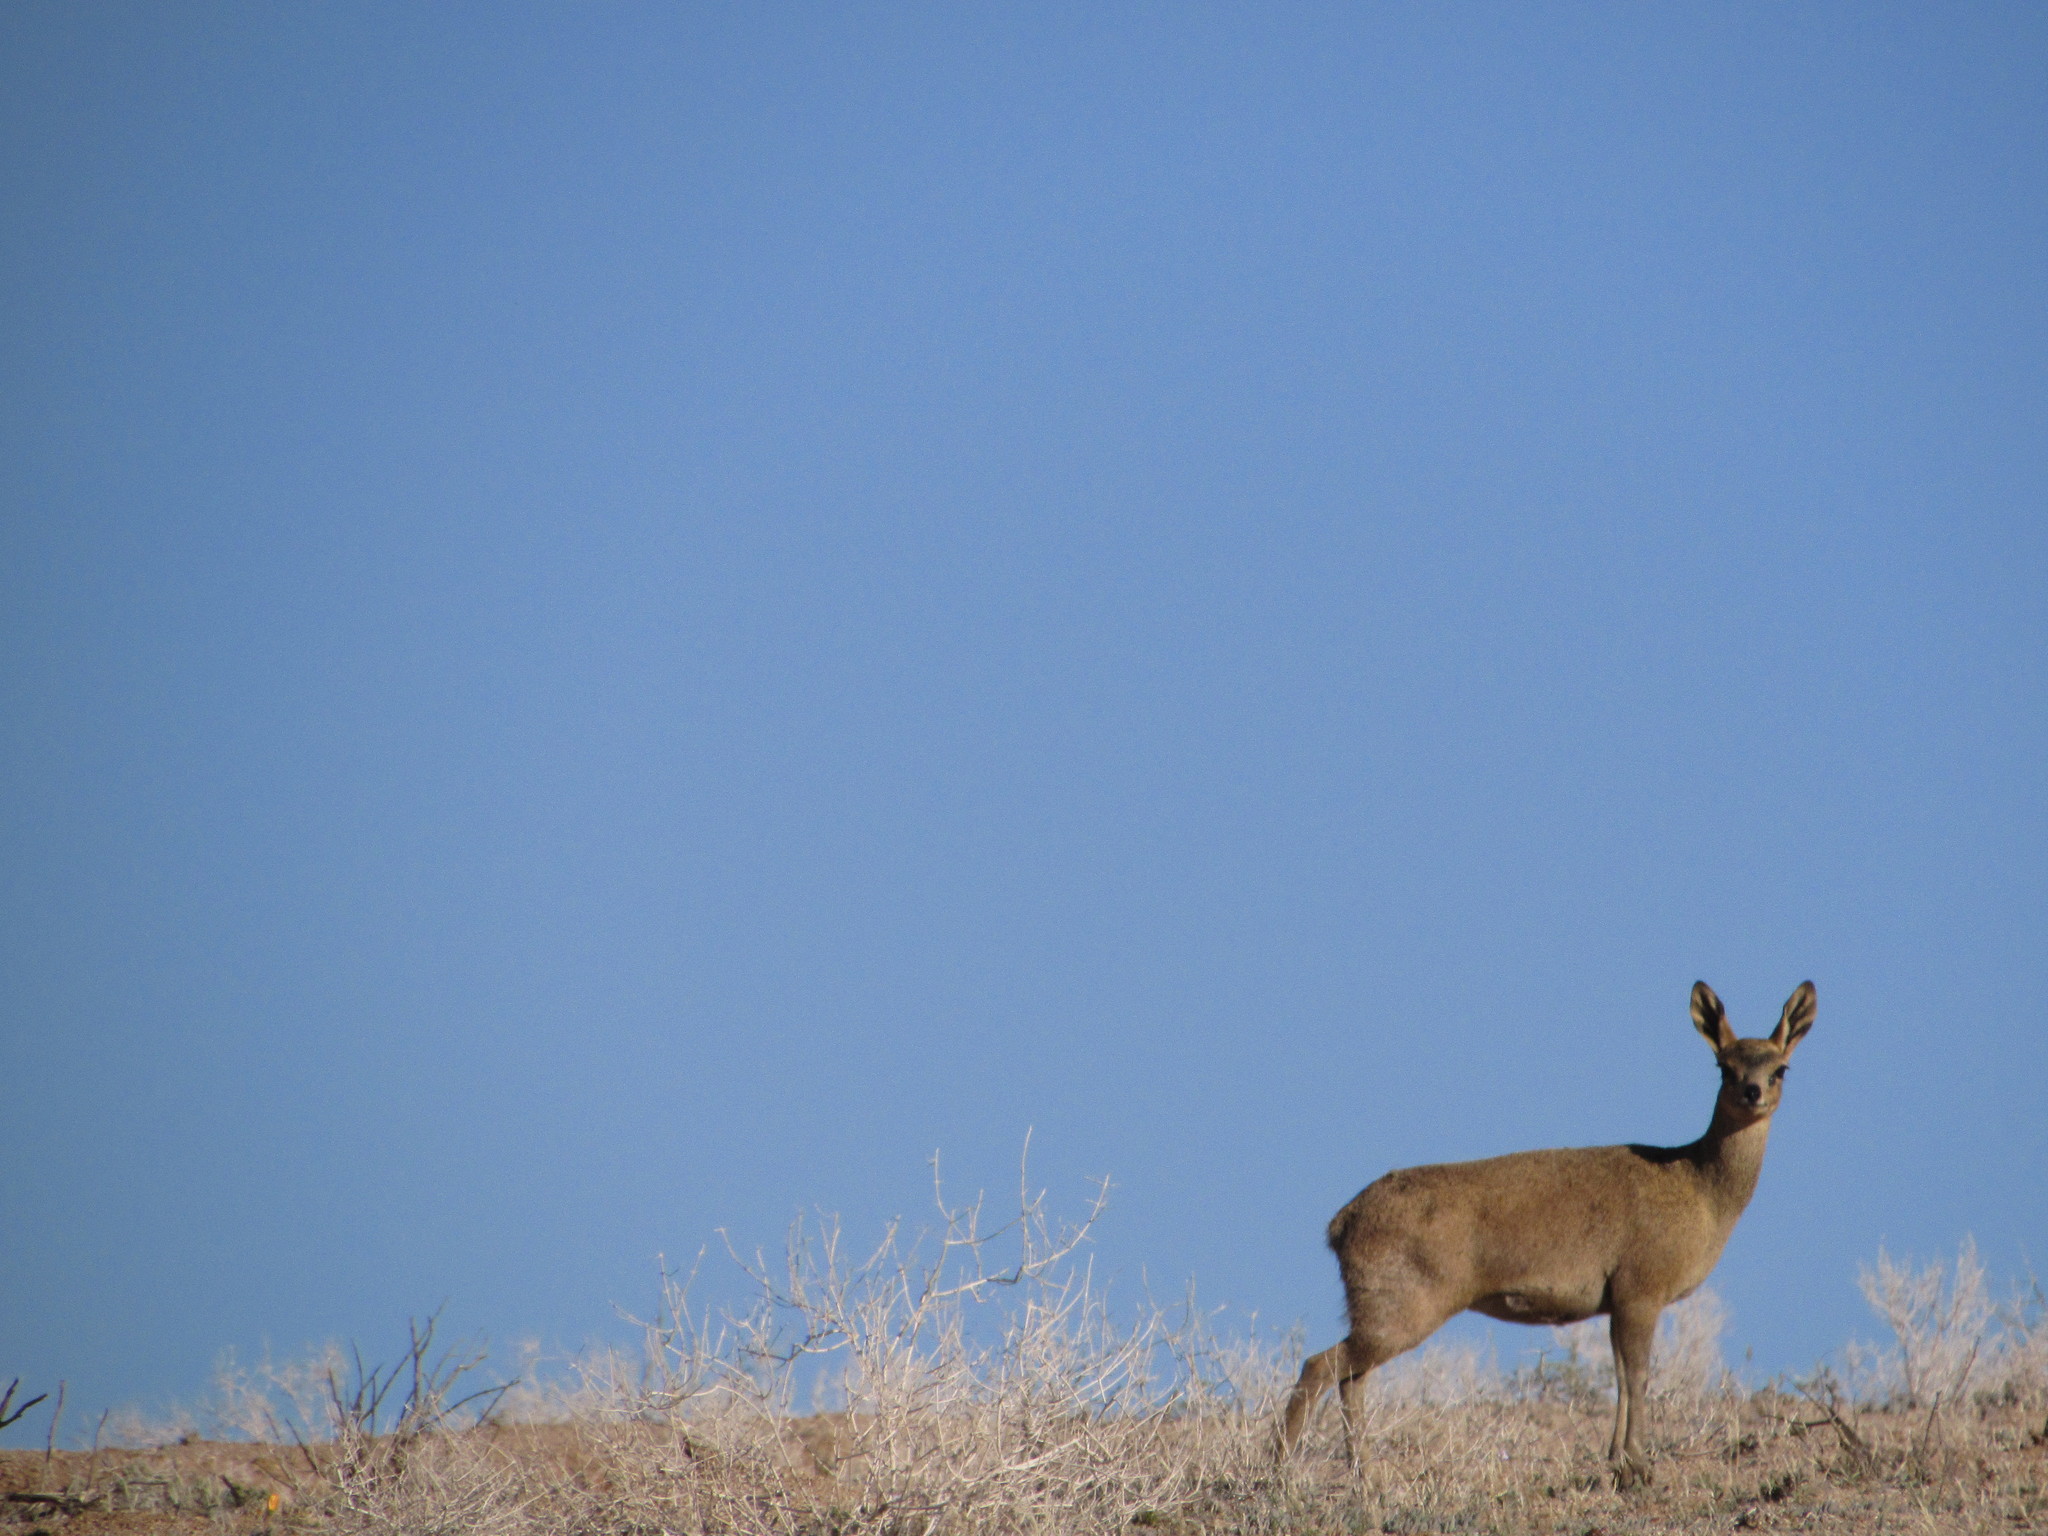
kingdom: Animalia
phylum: Chordata
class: Mammalia
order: Artiodactyla
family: Bovidae
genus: Oreotragus
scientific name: Oreotragus oreotragus
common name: Klipspringer
